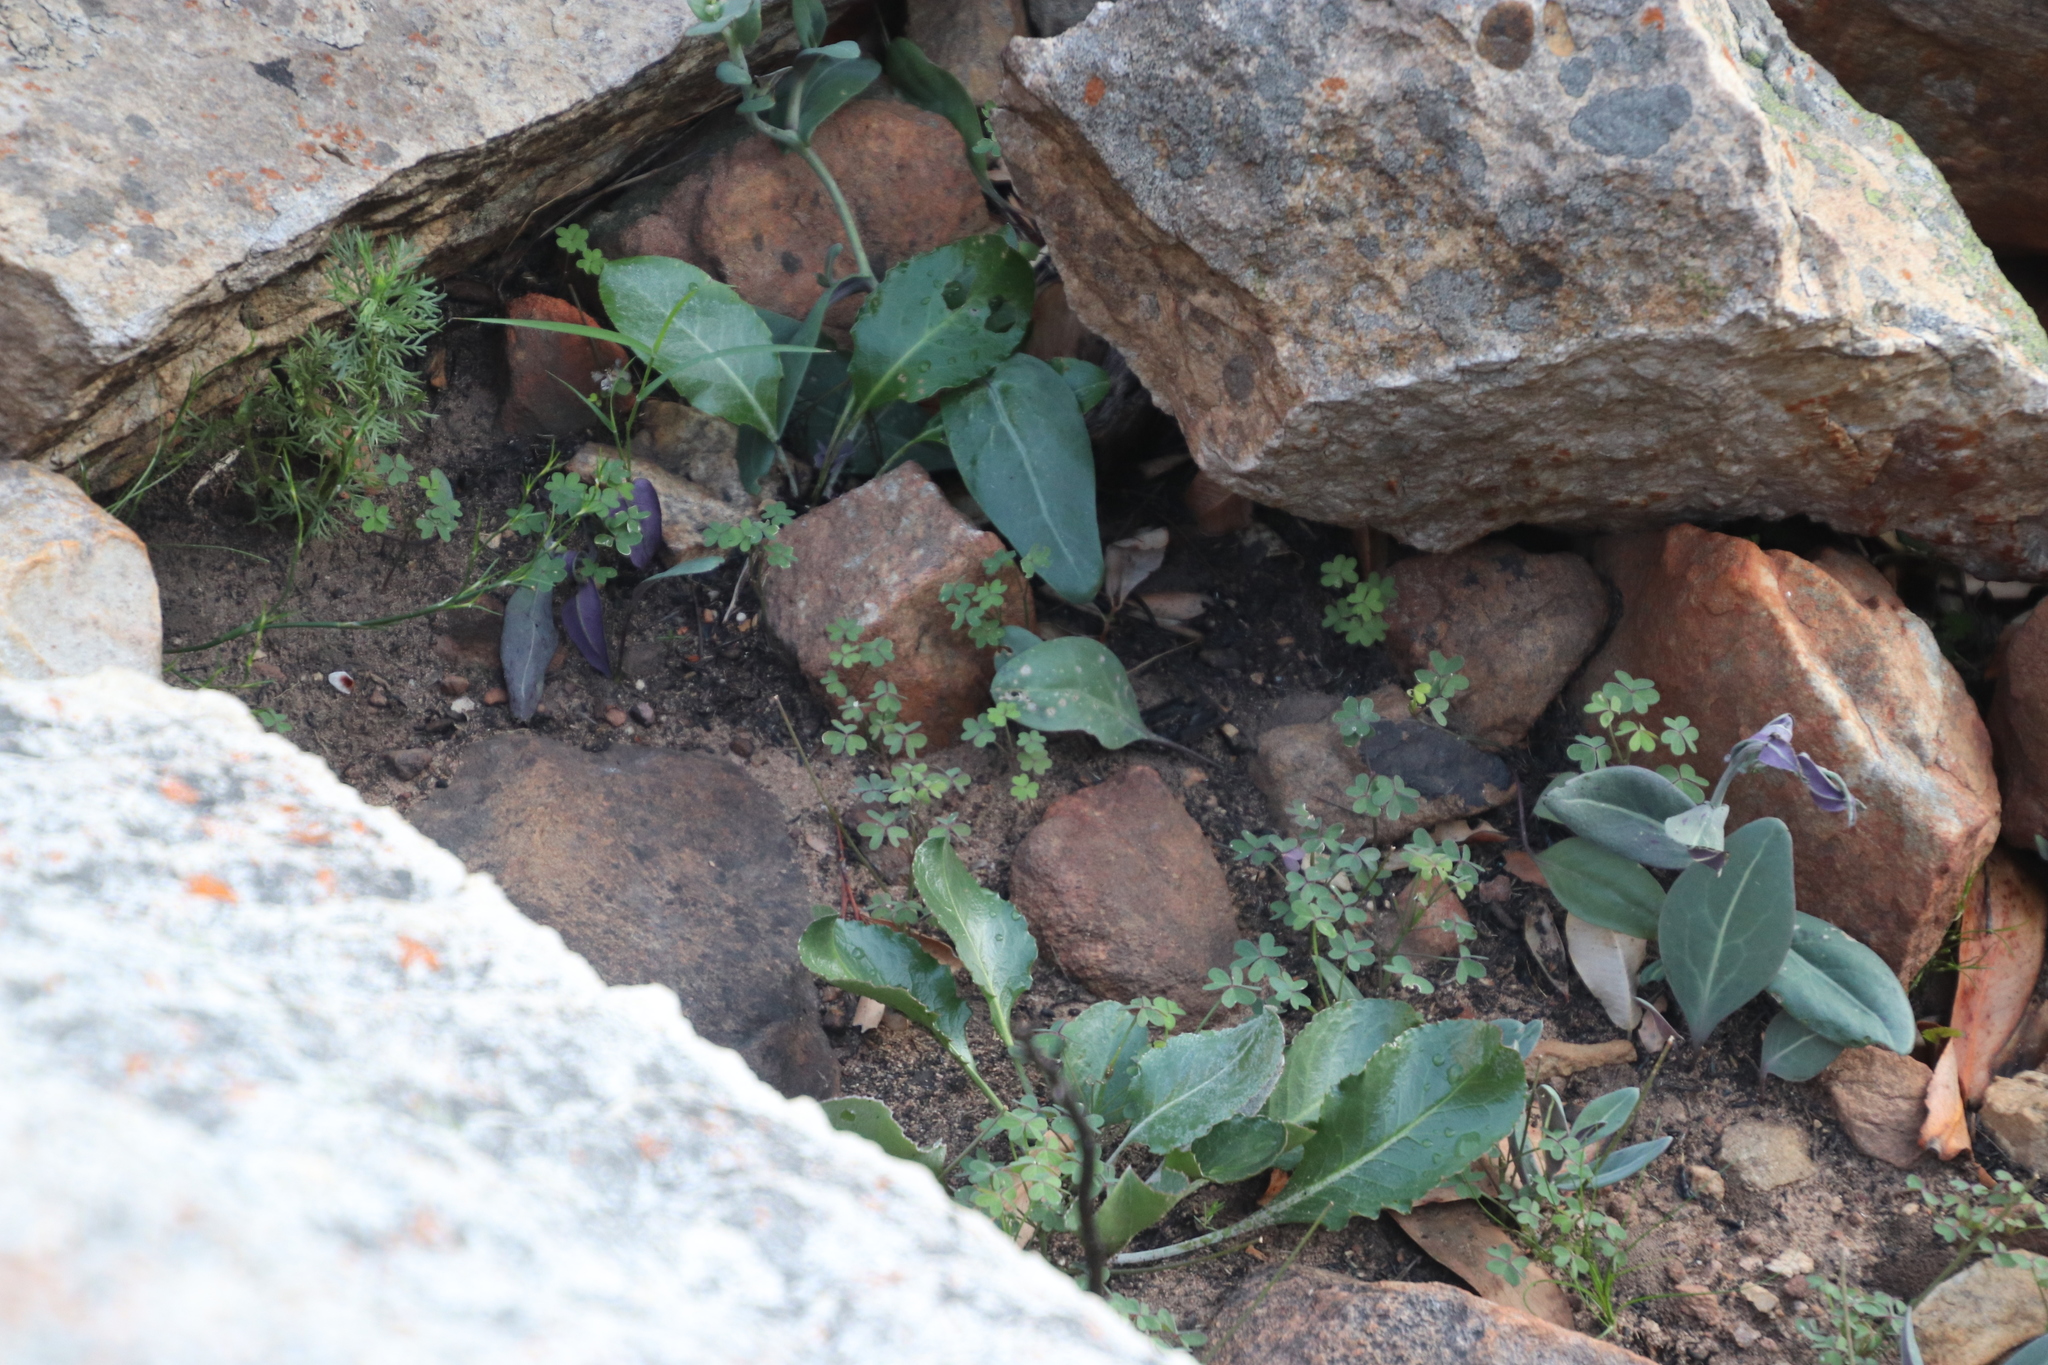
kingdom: Plantae
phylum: Tracheophyta
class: Magnoliopsida
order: Asterales
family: Asteraceae
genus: Othonna
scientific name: Othonna gymnodiscus
